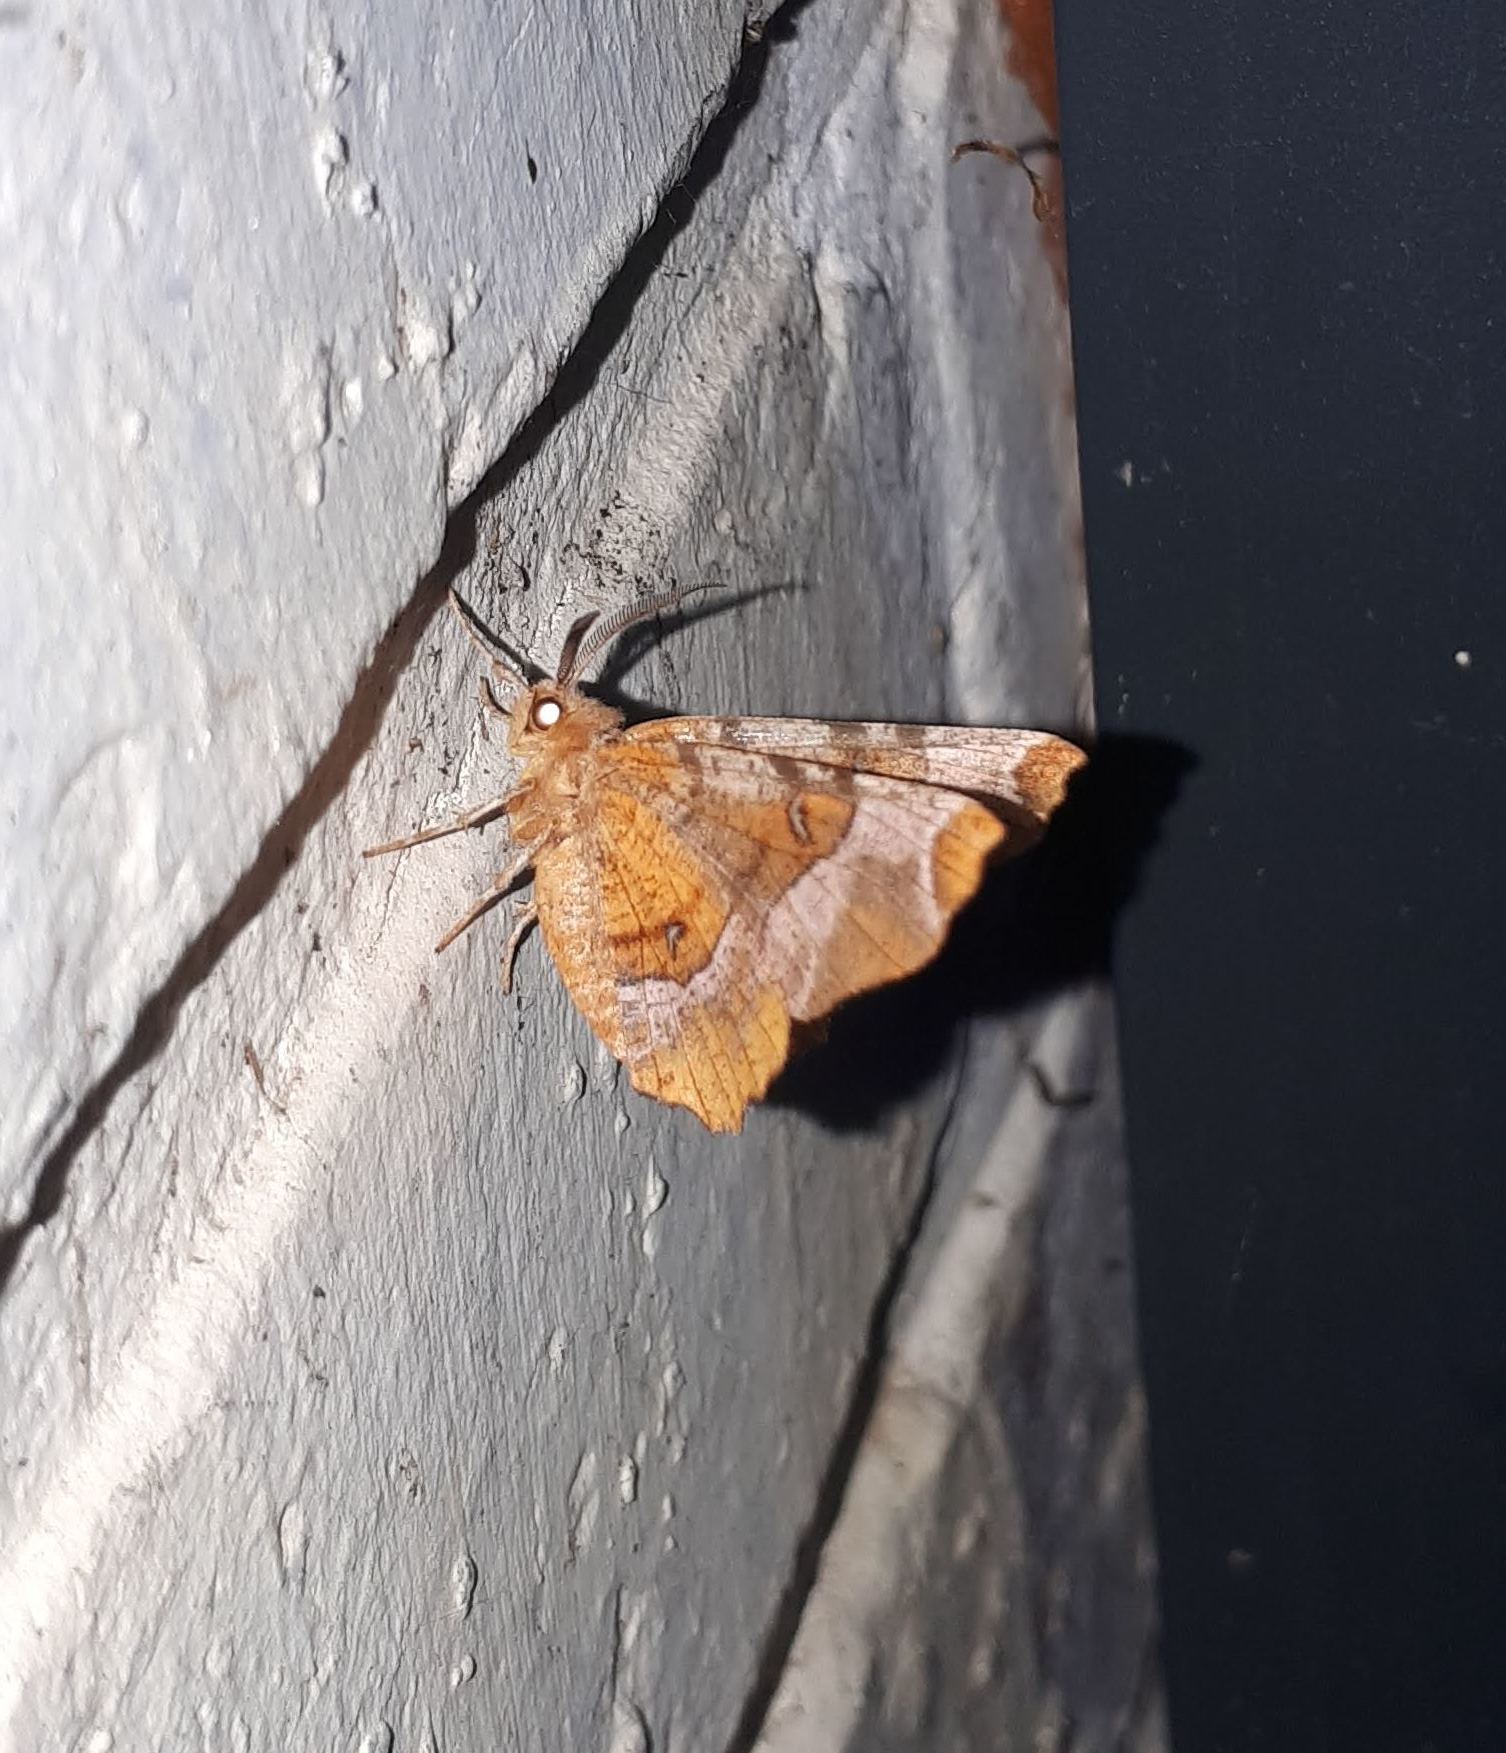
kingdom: Animalia
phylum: Arthropoda
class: Insecta
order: Lepidoptera
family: Geometridae
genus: Selenia
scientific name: Selenia tetralunaria
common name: Purple thorn
